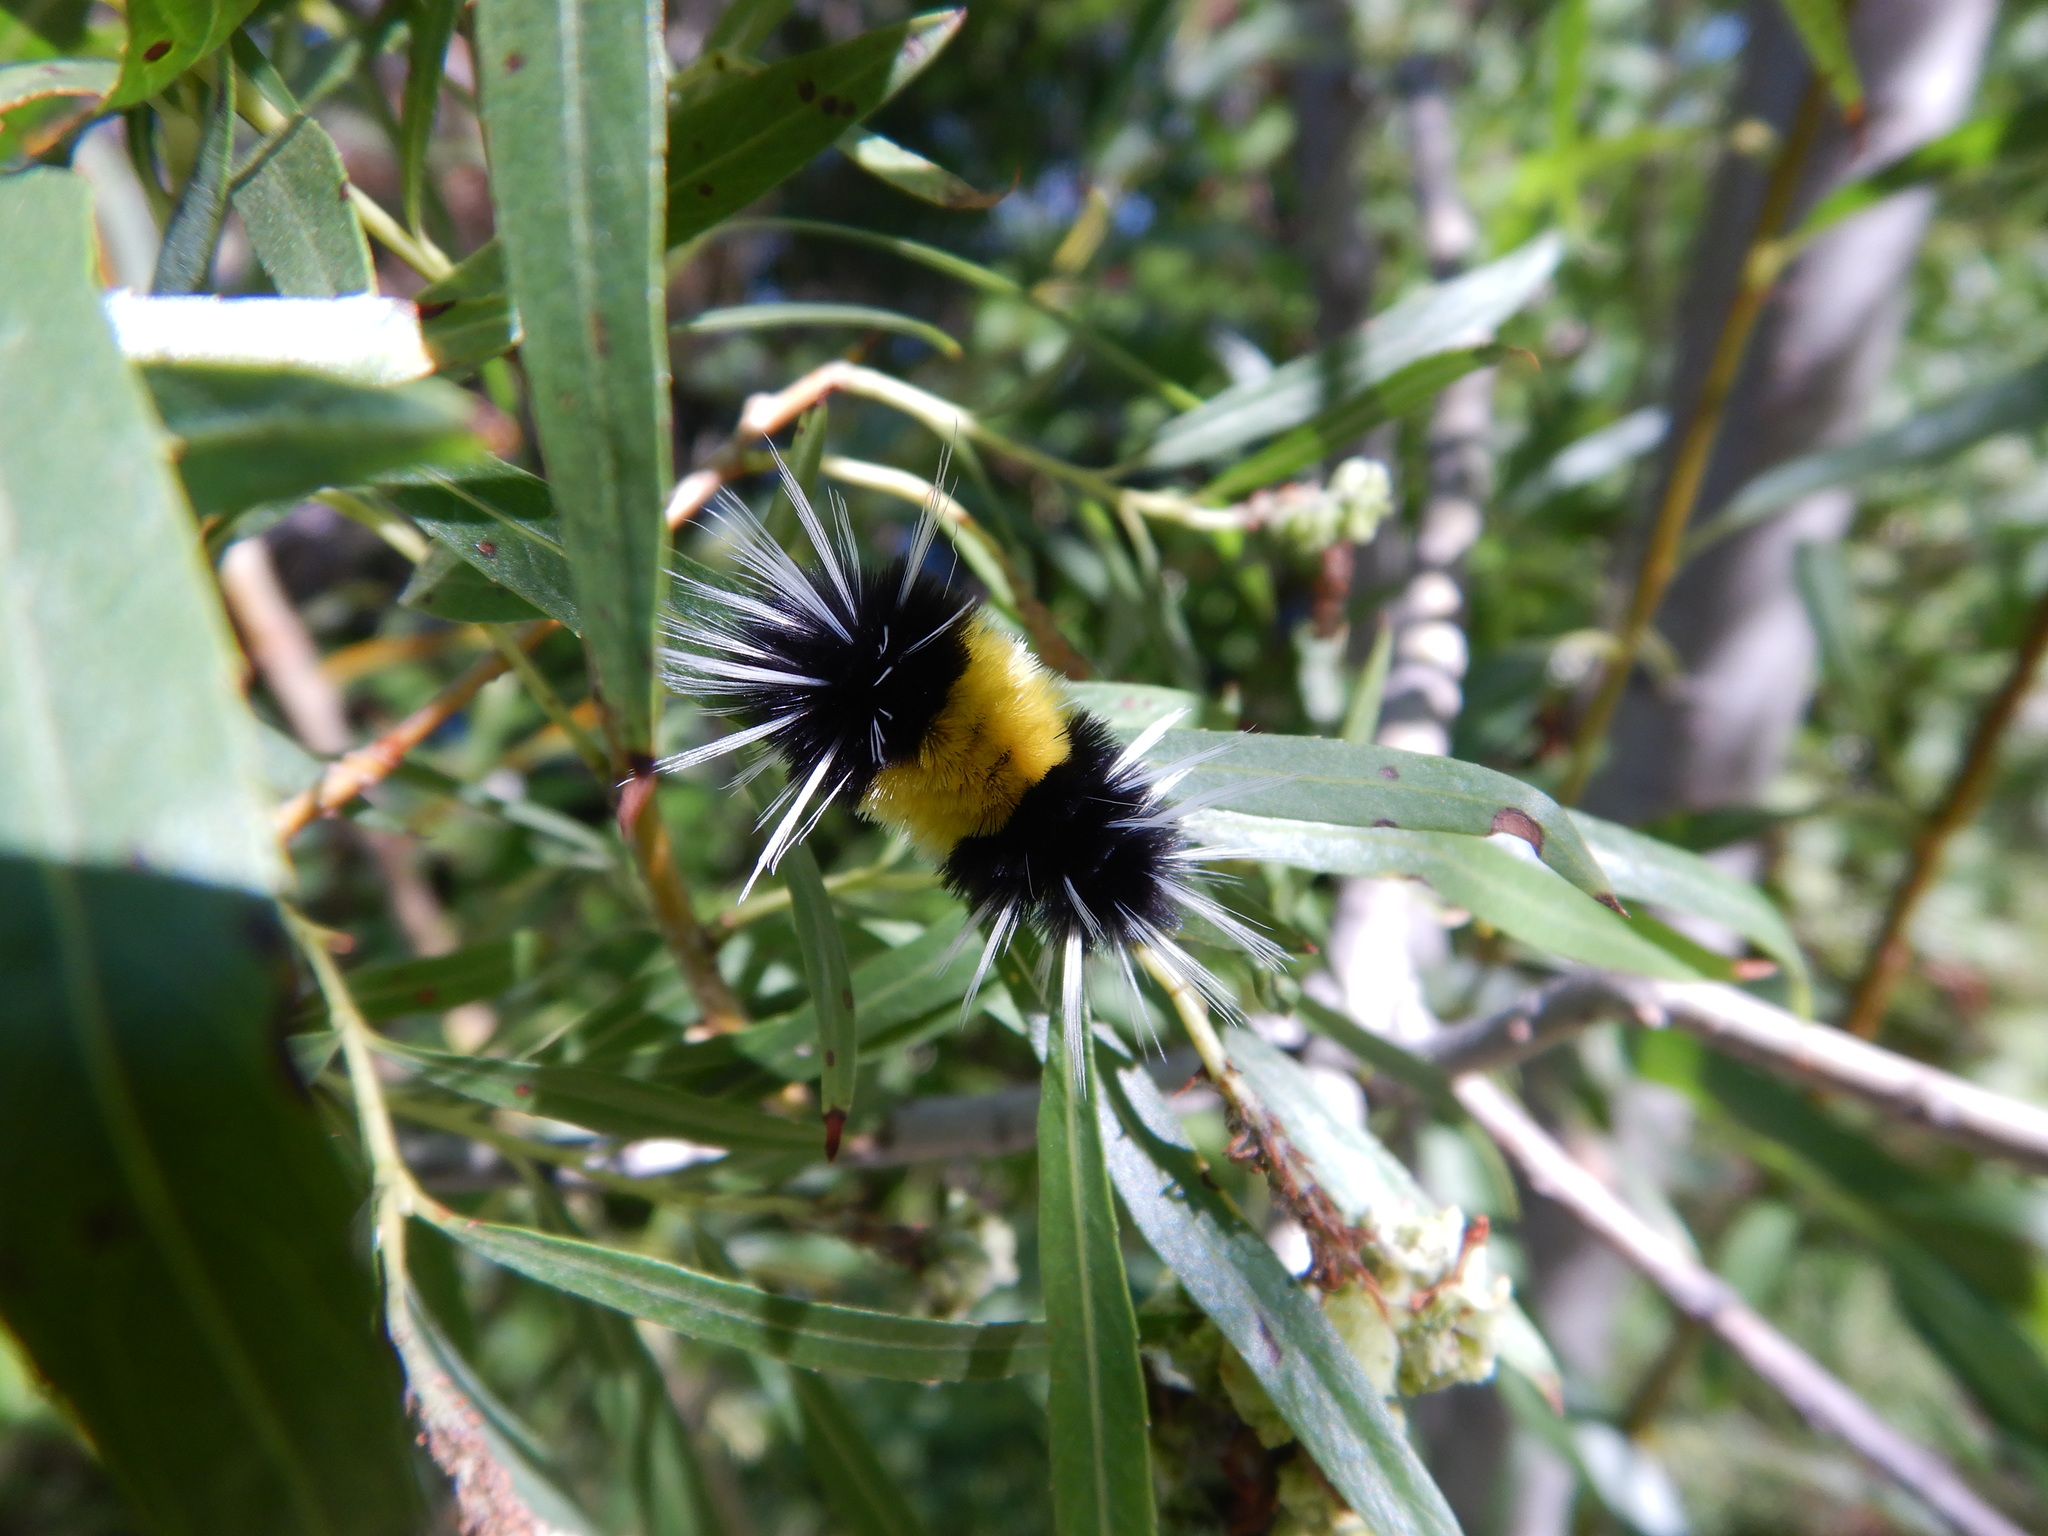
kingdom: Animalia
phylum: Arthropoda
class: Insecta
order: Lepidoptera
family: Erebidae
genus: Lophocampa
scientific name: Lophocampa maculata
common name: Spotted tussock moth
